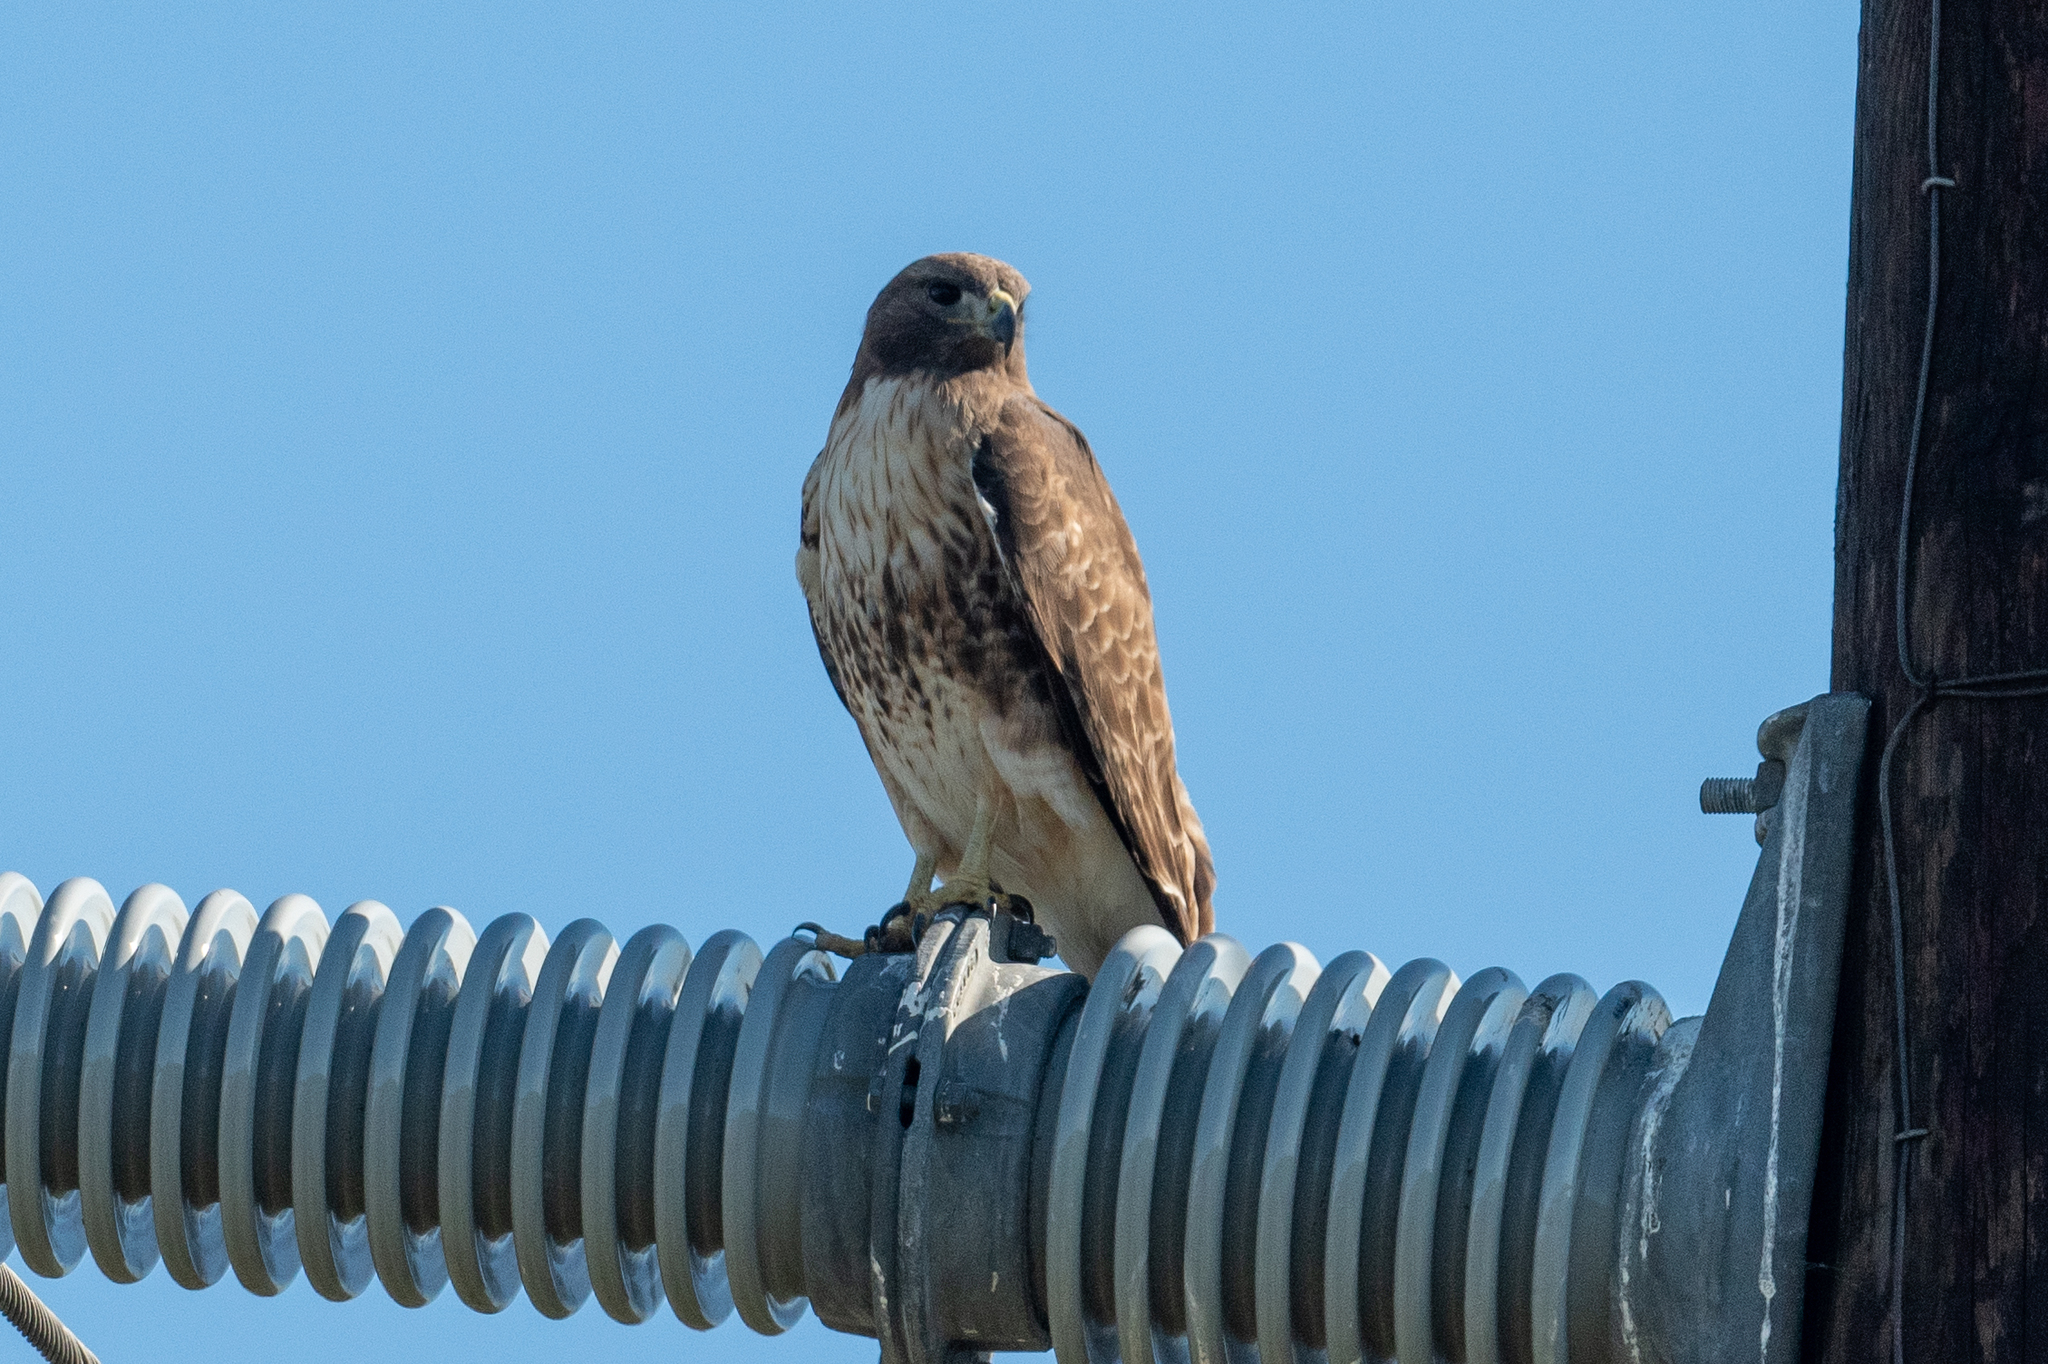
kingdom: Animalia
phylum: Chordata
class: Aves
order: Accipitriformes
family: Accipitridae
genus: Buteo
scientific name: Buteo jamaicensis
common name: Red-tailed hawk
